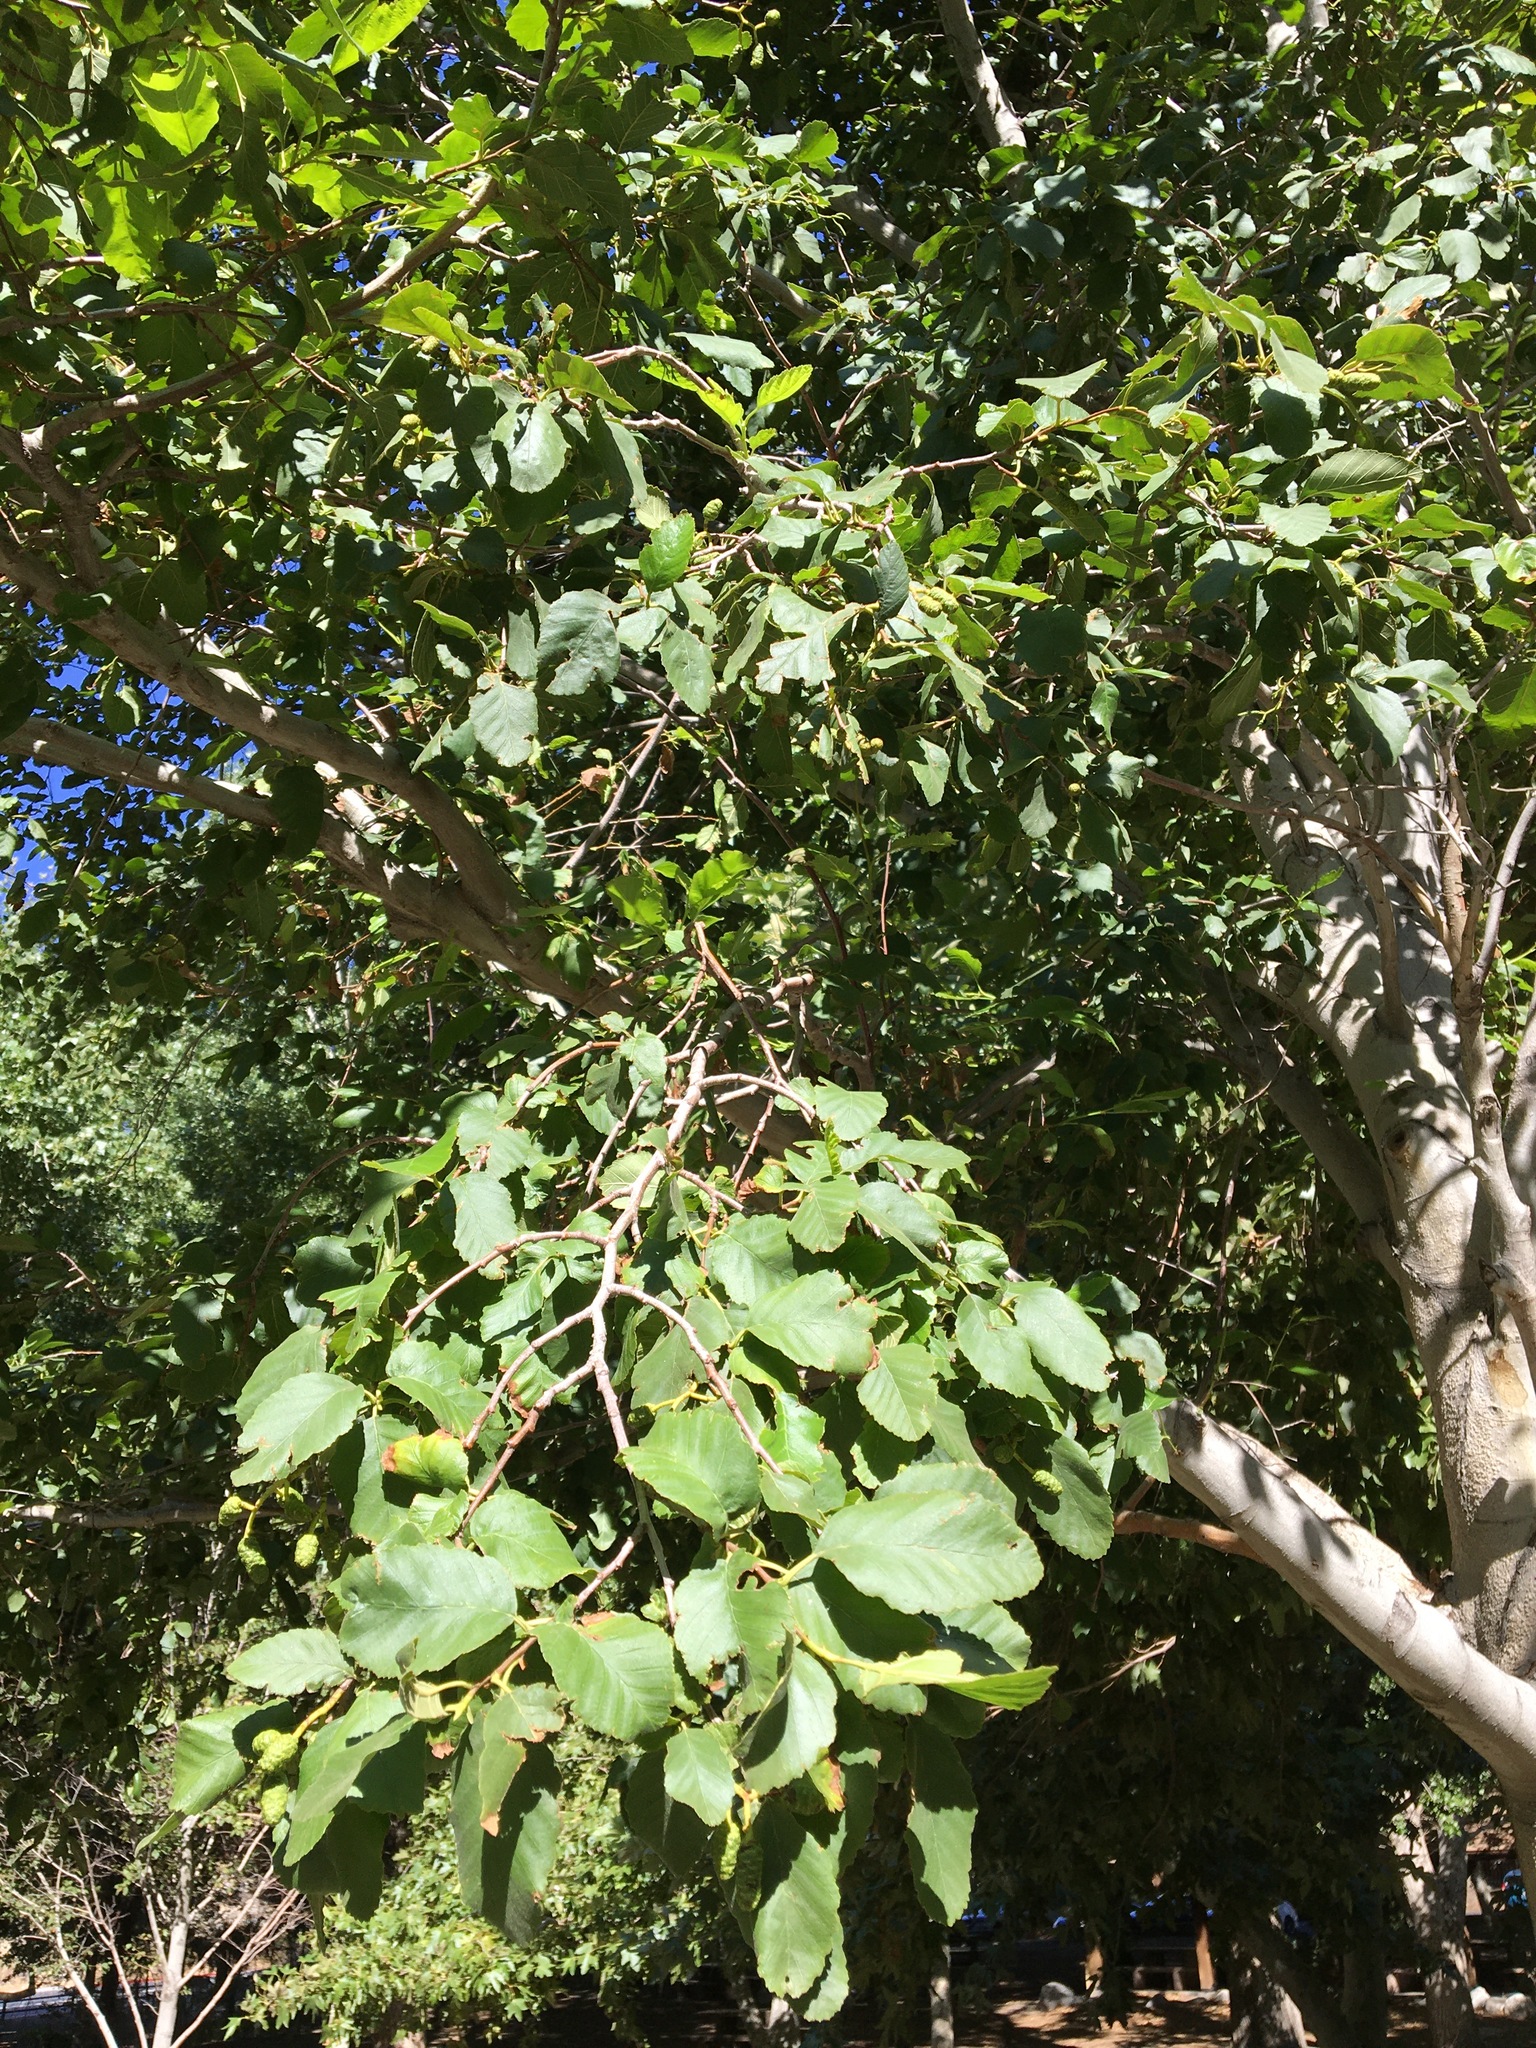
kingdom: Plantae
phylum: Tracheophyta
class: Magnoliopsida
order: Fagales
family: Betulaceae
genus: Alnus
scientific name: Alnus rhombifolia
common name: California alder
